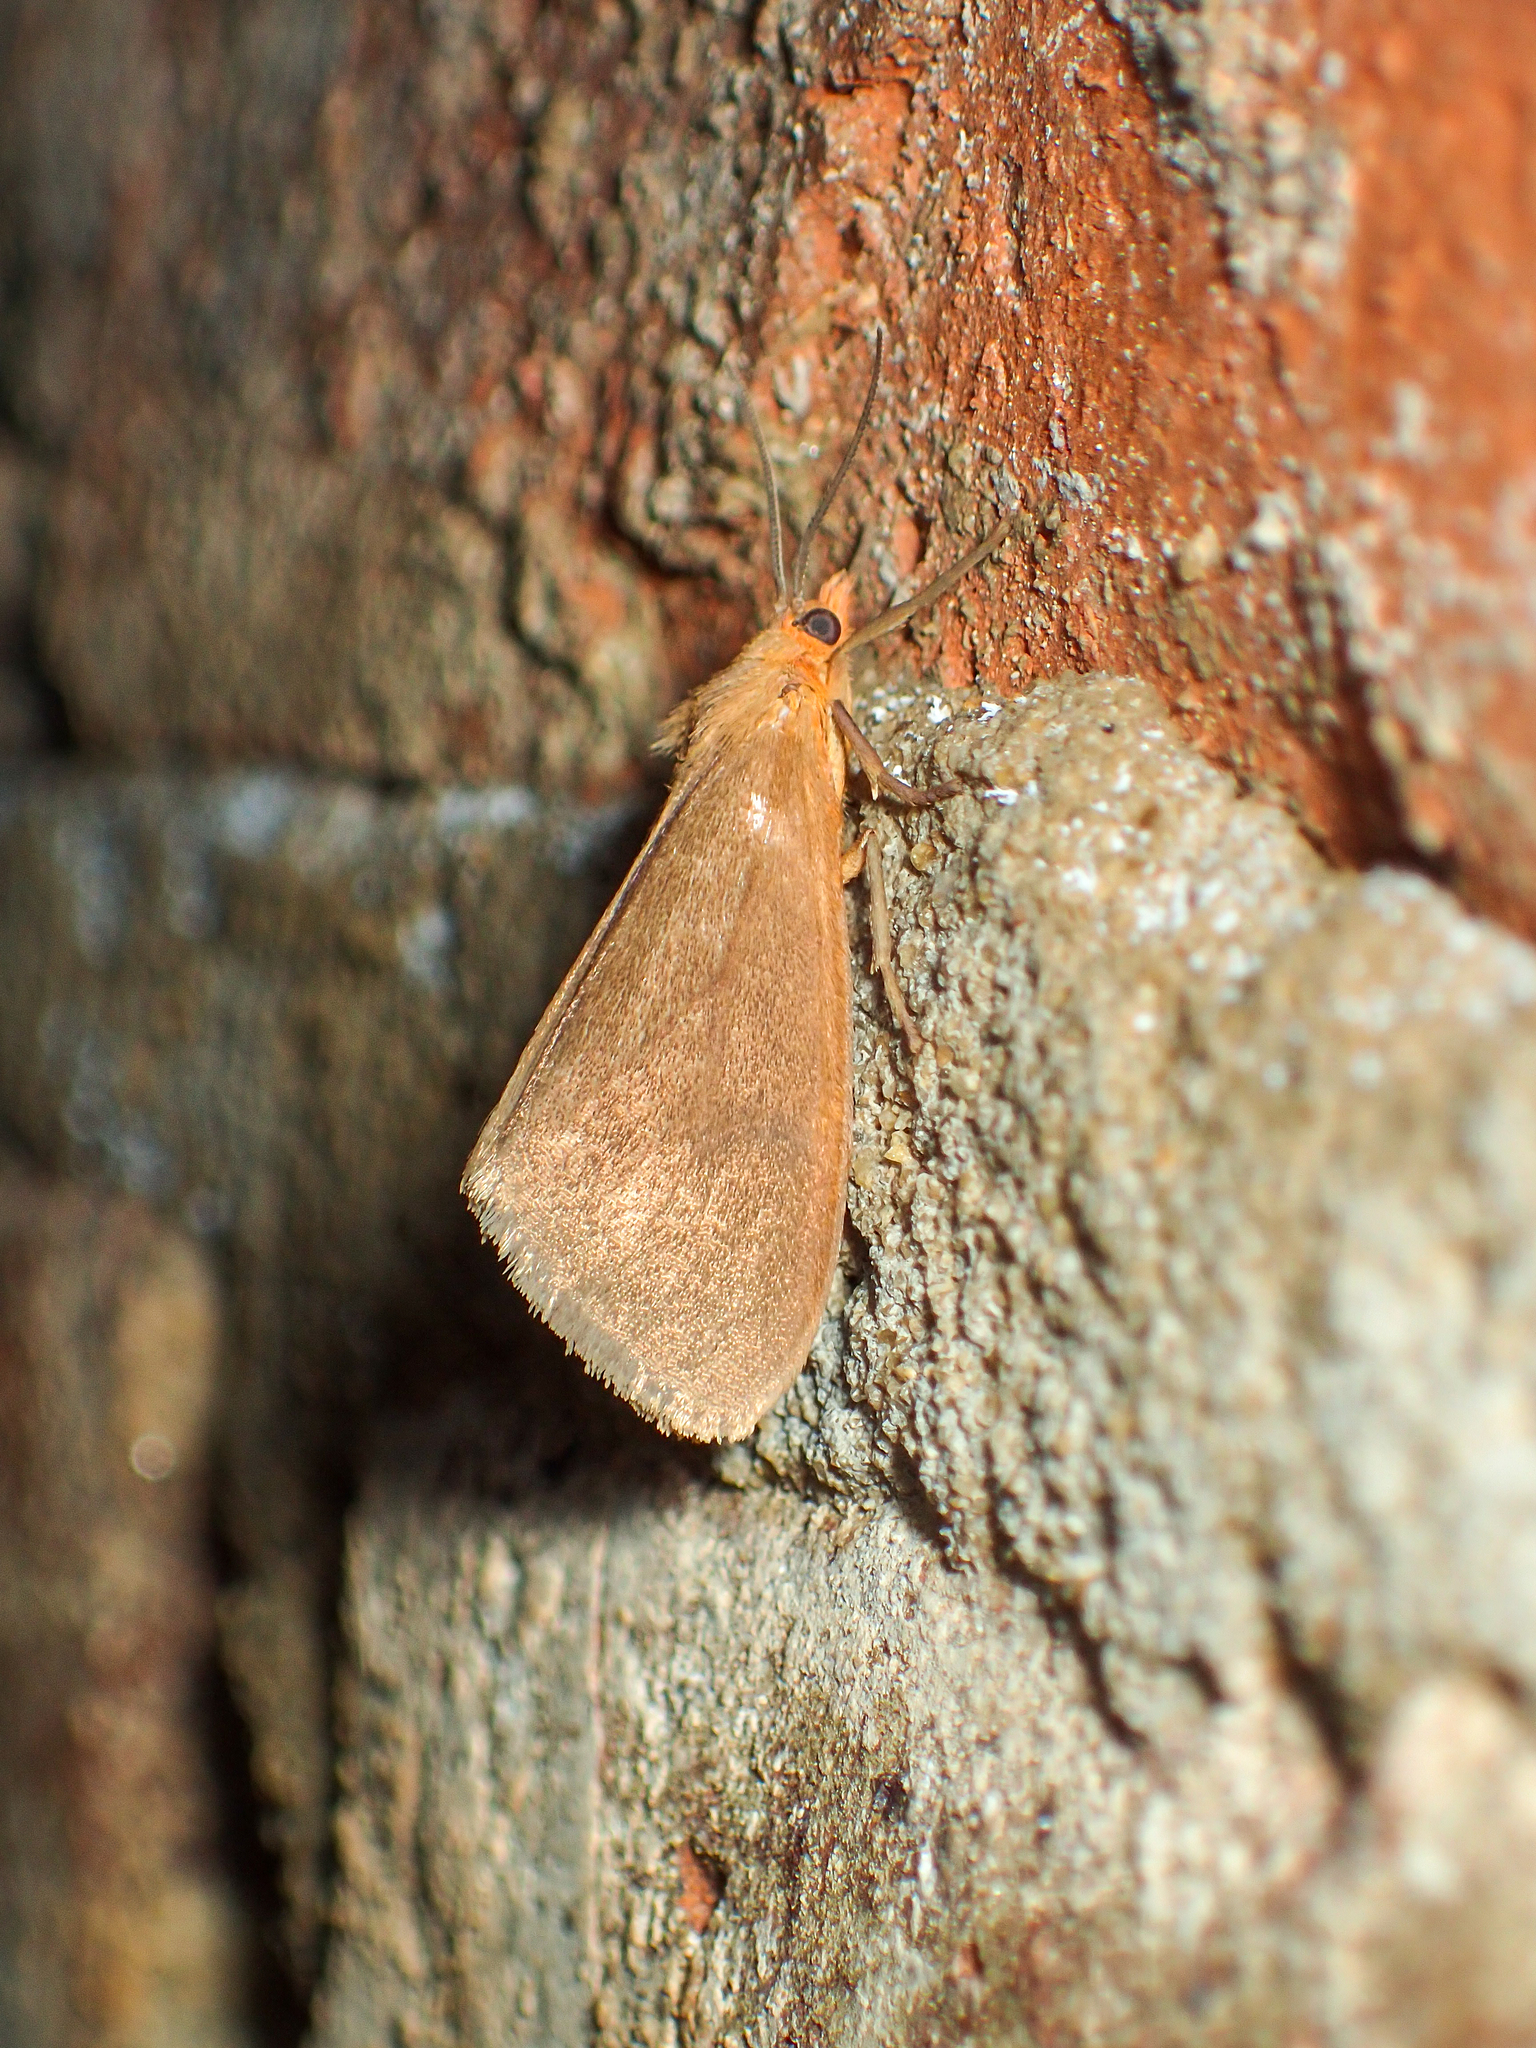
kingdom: Animalia
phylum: Arthropoda
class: Insecta
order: Lepidoptera
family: Erebidae
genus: Virbia
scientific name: Virbia aurantiaca
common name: Orange virbia moth
